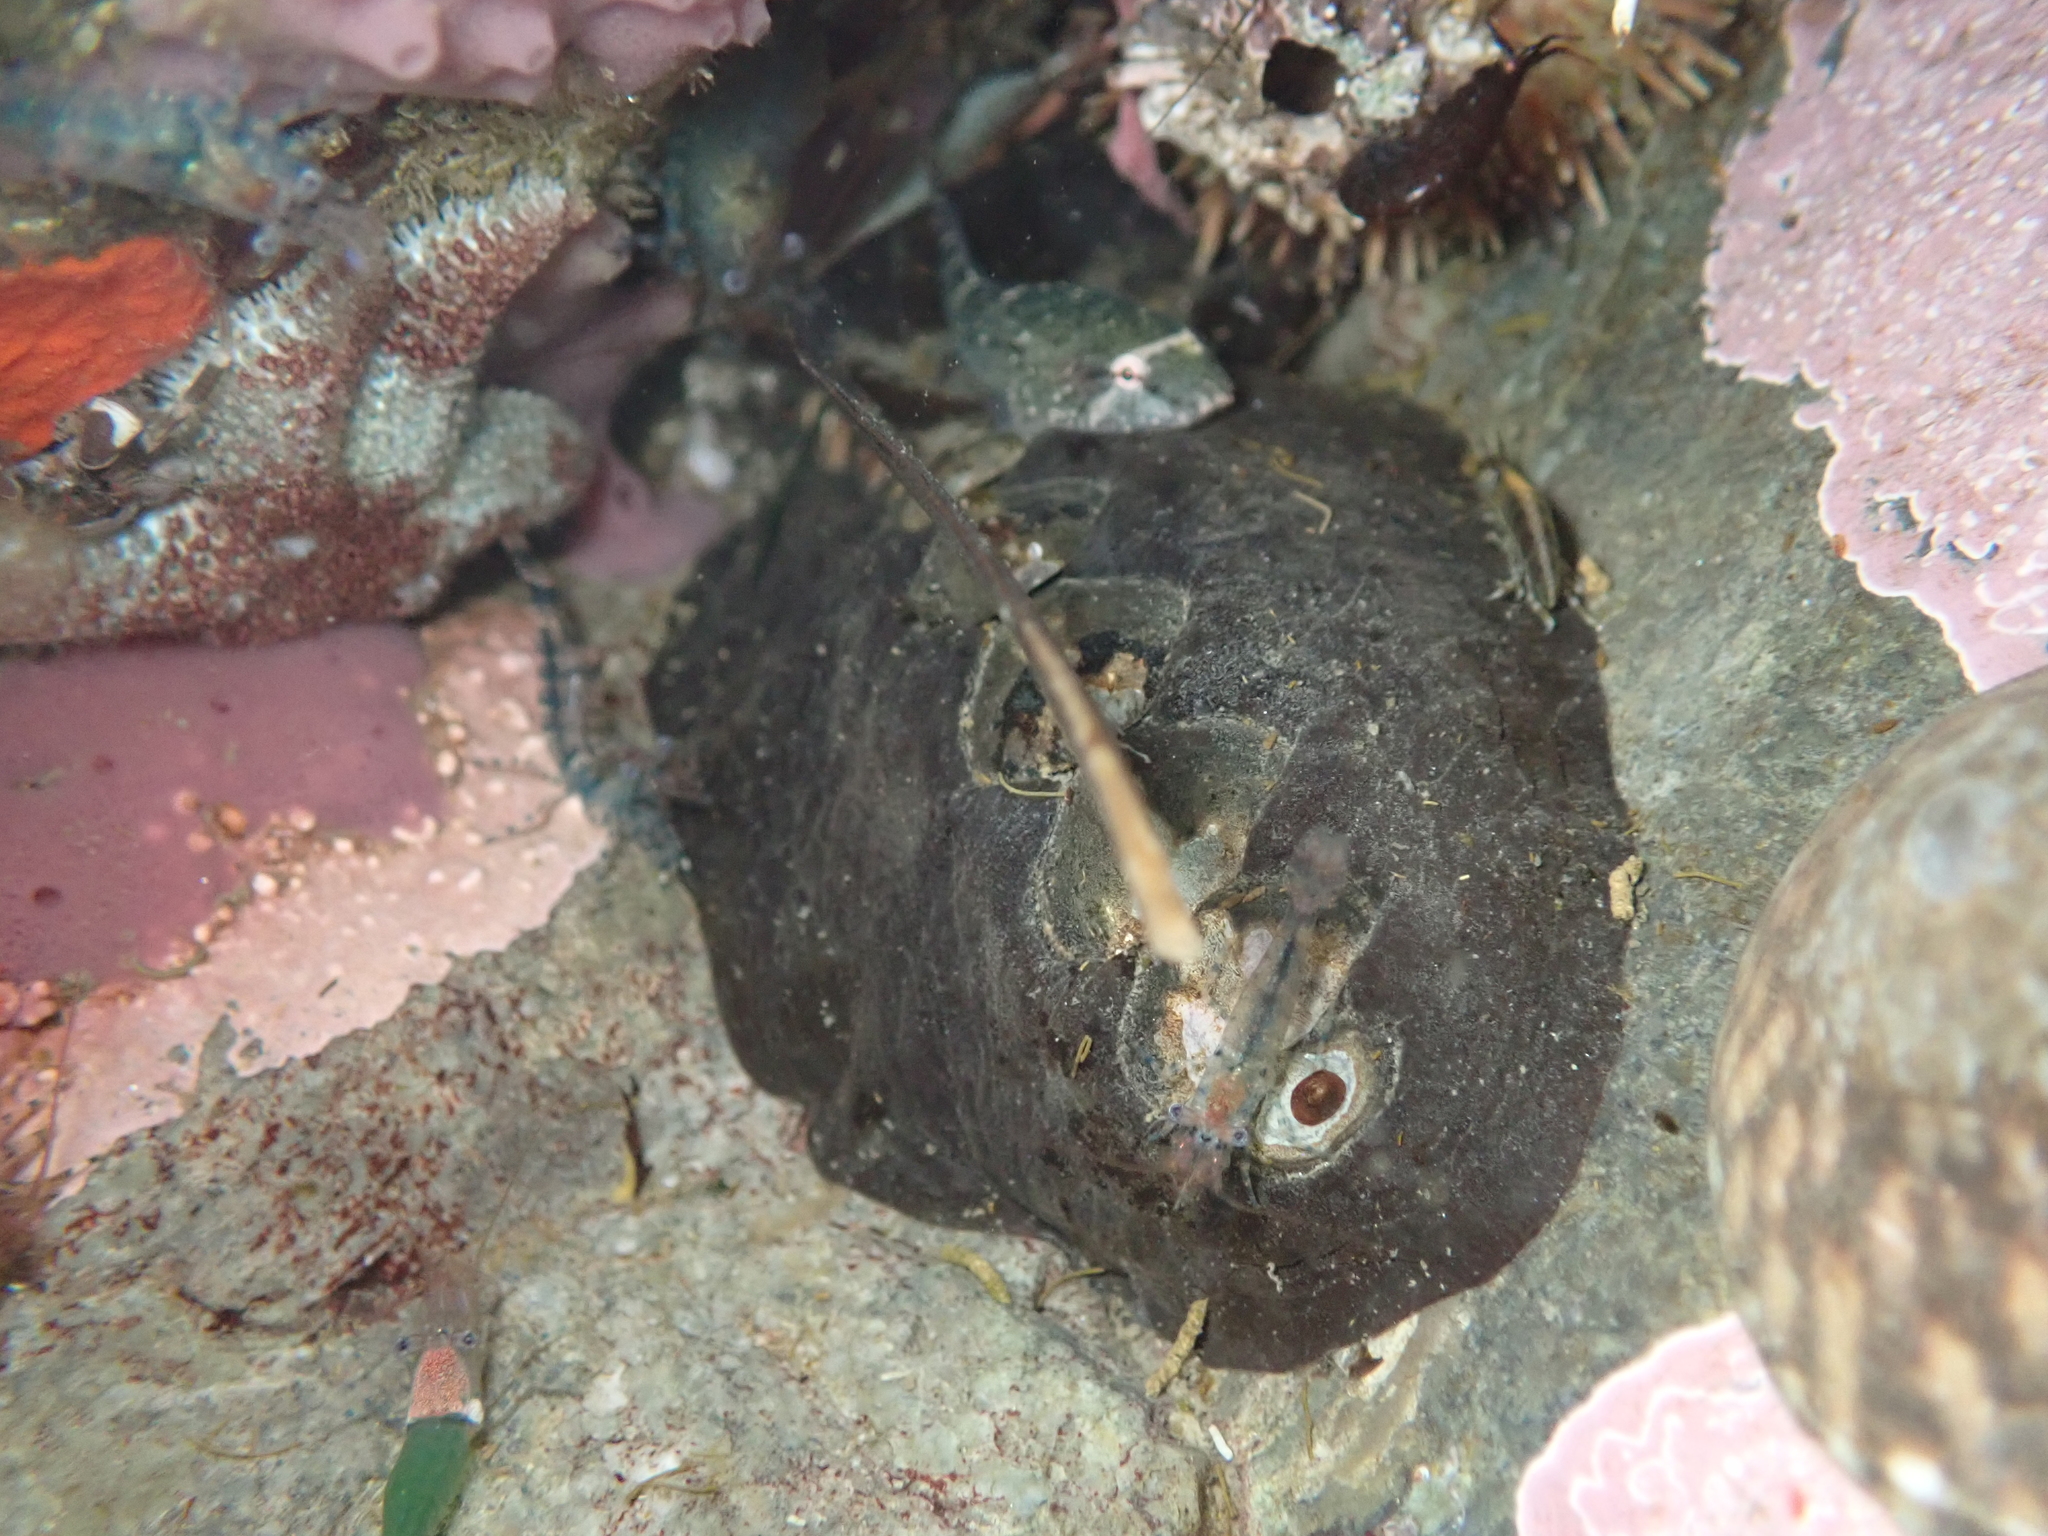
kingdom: Animalia
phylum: Mollusca
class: Polyplacophora
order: Chitonida
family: Mopaliidae
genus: Katharina
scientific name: Katharina tunicata
